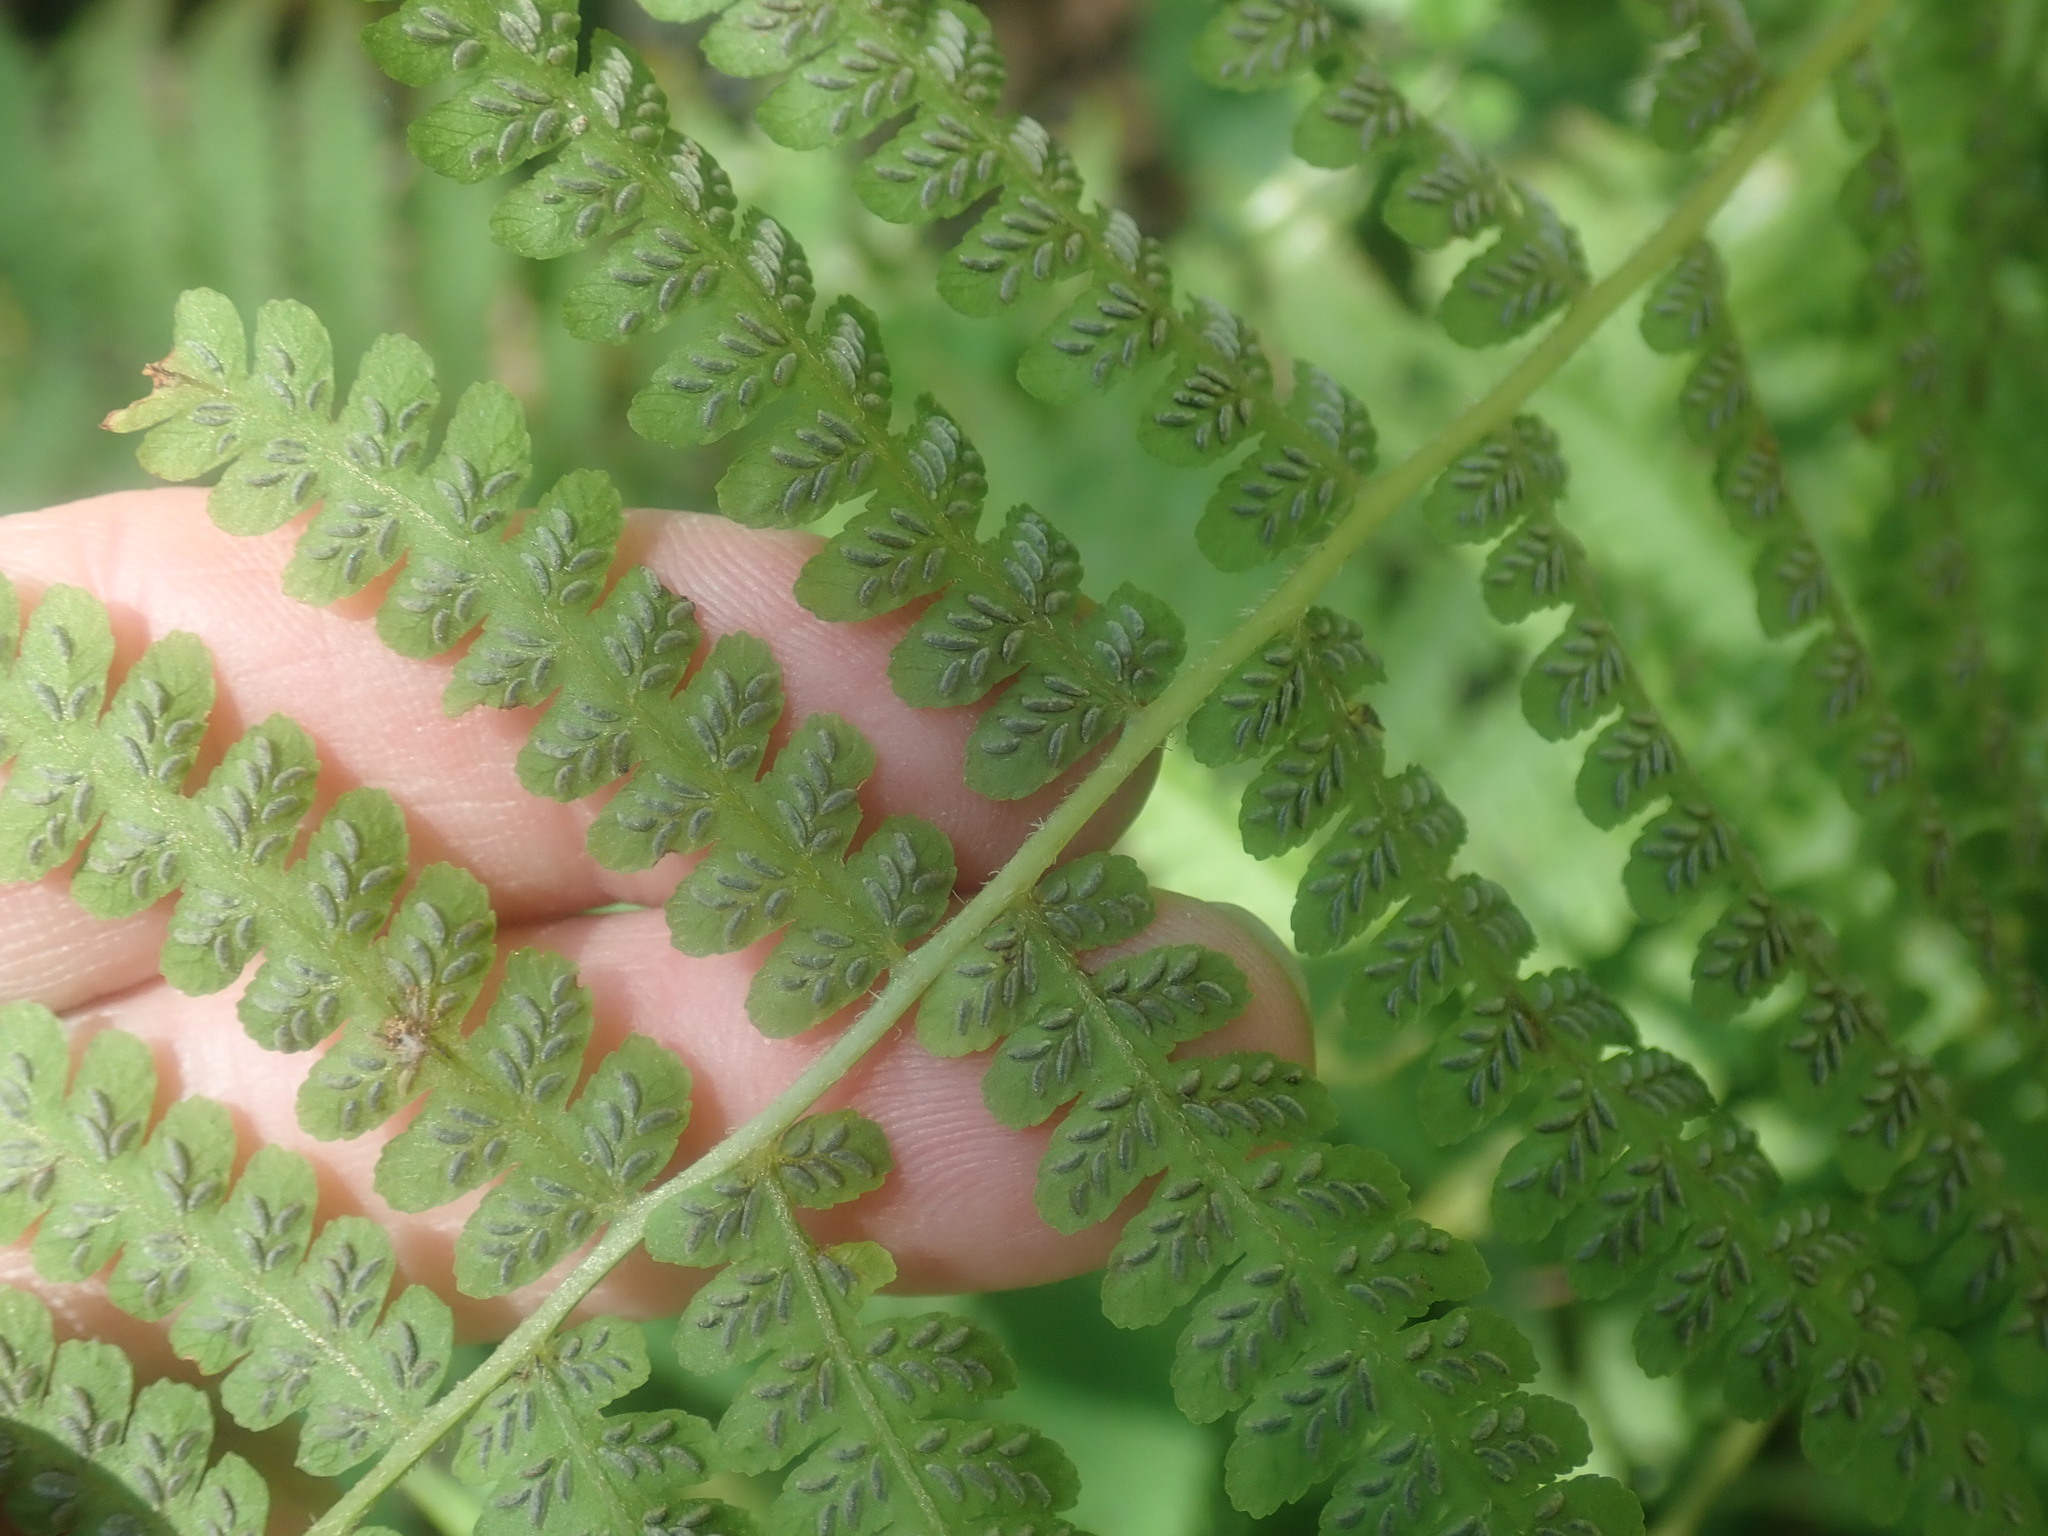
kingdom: Plantae
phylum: Tracheophyta
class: Polypodiopsida
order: Polypodiales
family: Athyriaceae
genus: Deparia
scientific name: Deparia acrostichoides
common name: Silver false spleenwort
